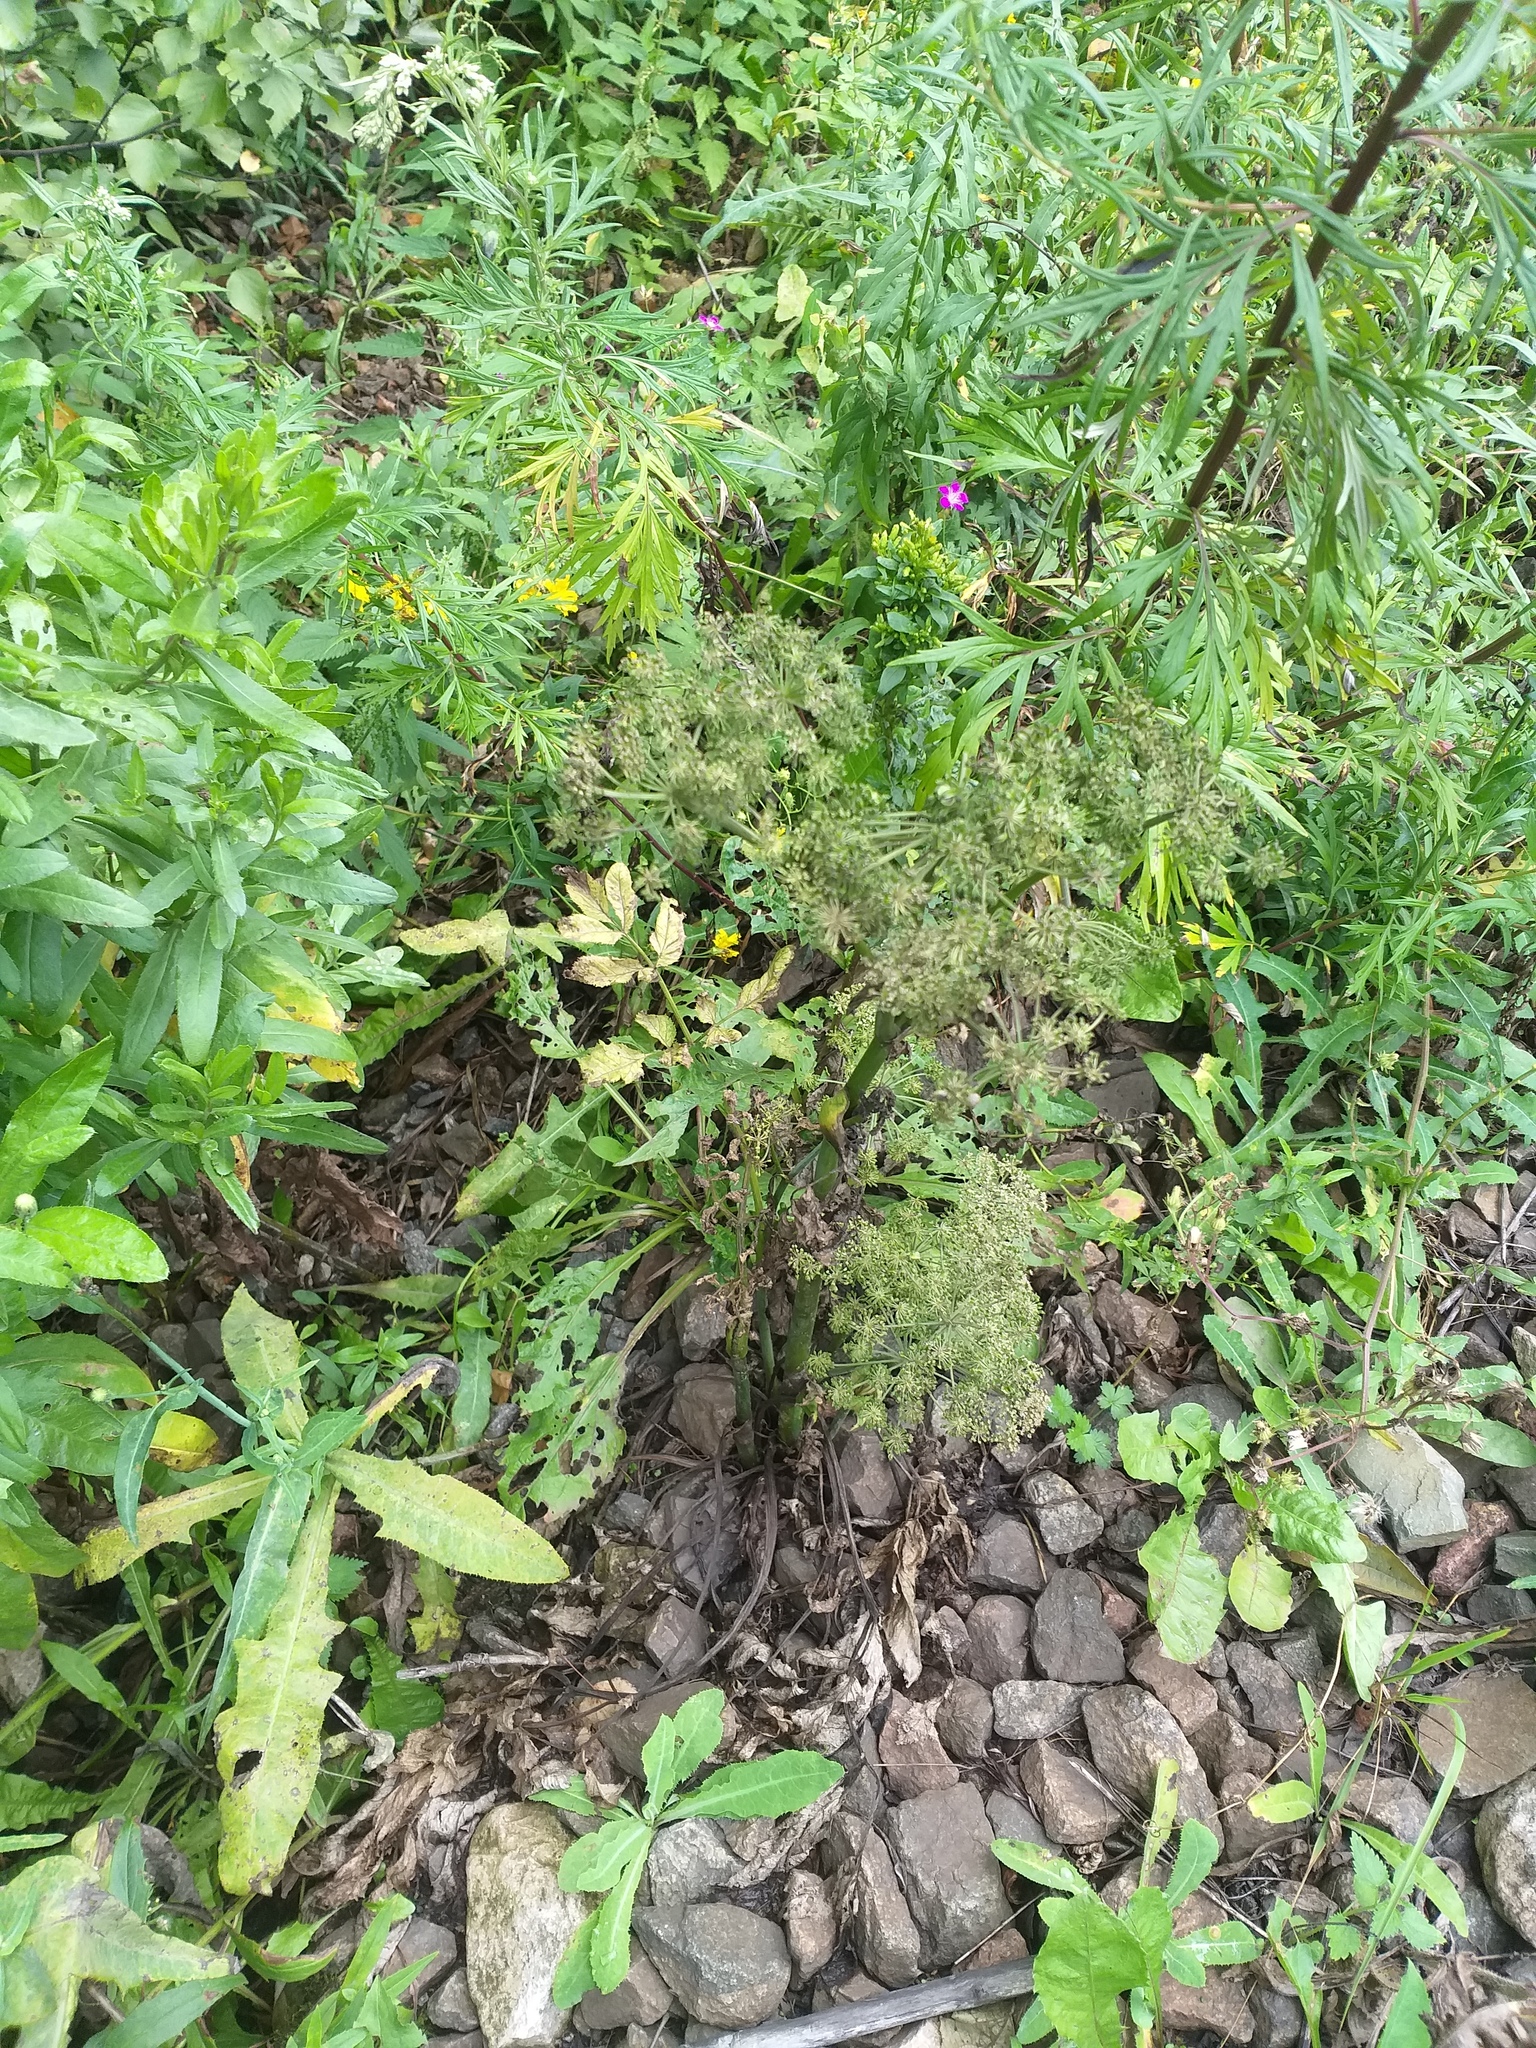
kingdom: Plantae
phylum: Tracheophyta
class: Magnoliopsida
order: Apiales
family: Apiaceae
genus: Angelica
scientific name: Angelica sylvestris
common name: Wild angelica
